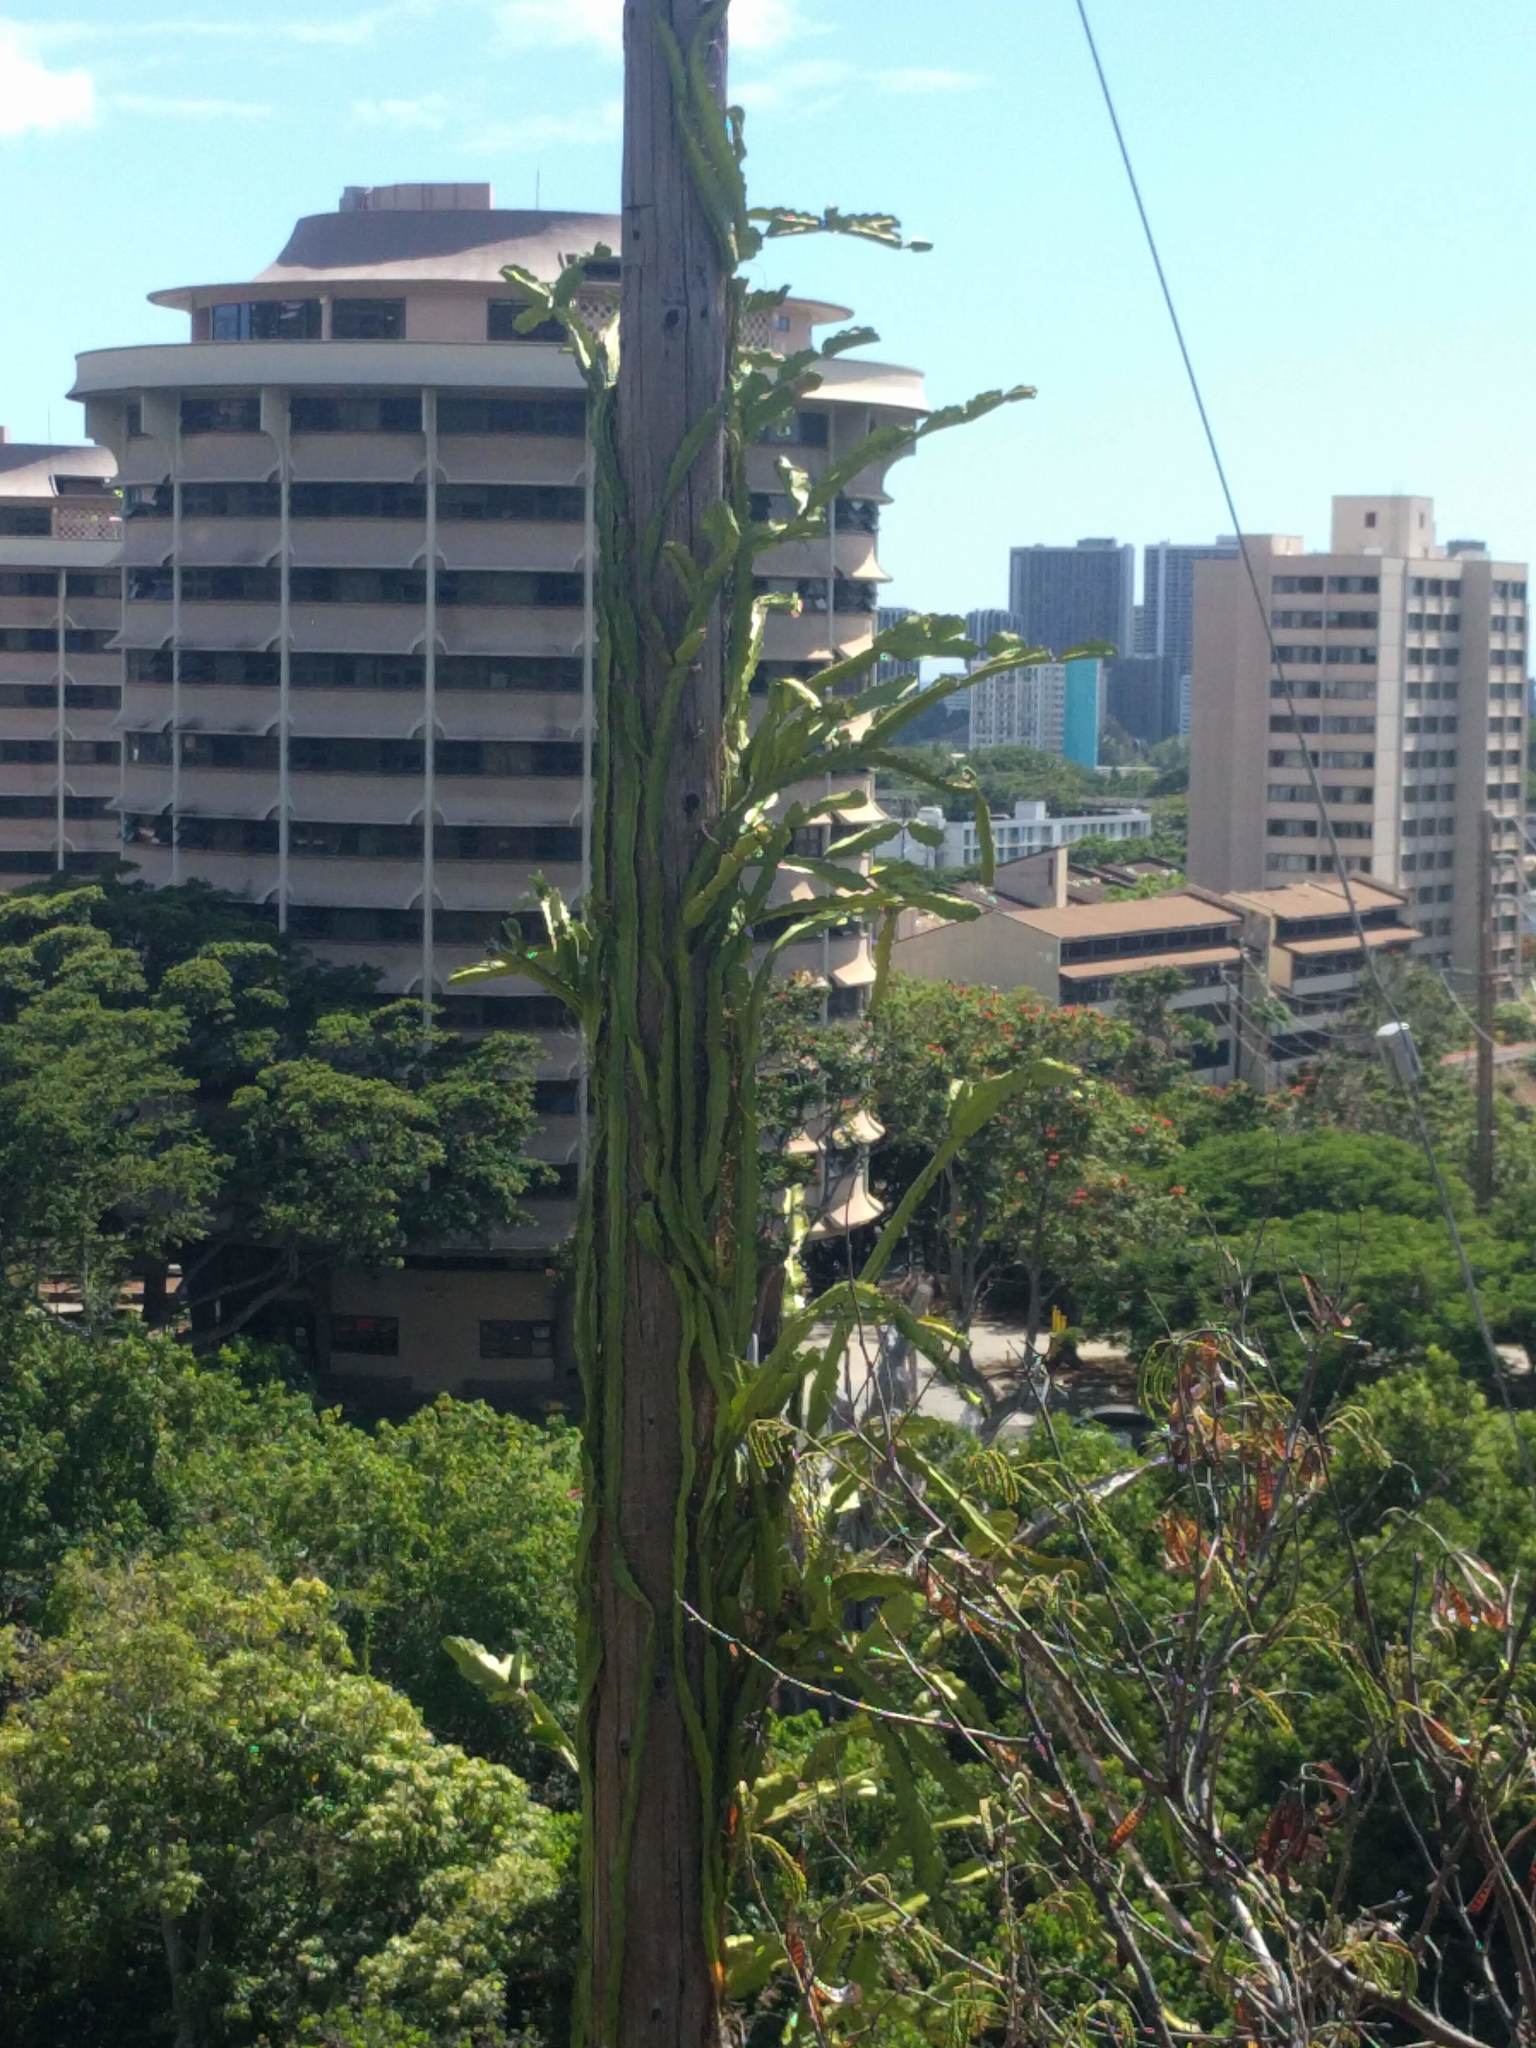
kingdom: Plantae
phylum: Tracheophyta
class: Magnoliopsida
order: Caryophyllales
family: Cactaceae
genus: Selenicereus
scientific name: Selenicereus undatus
